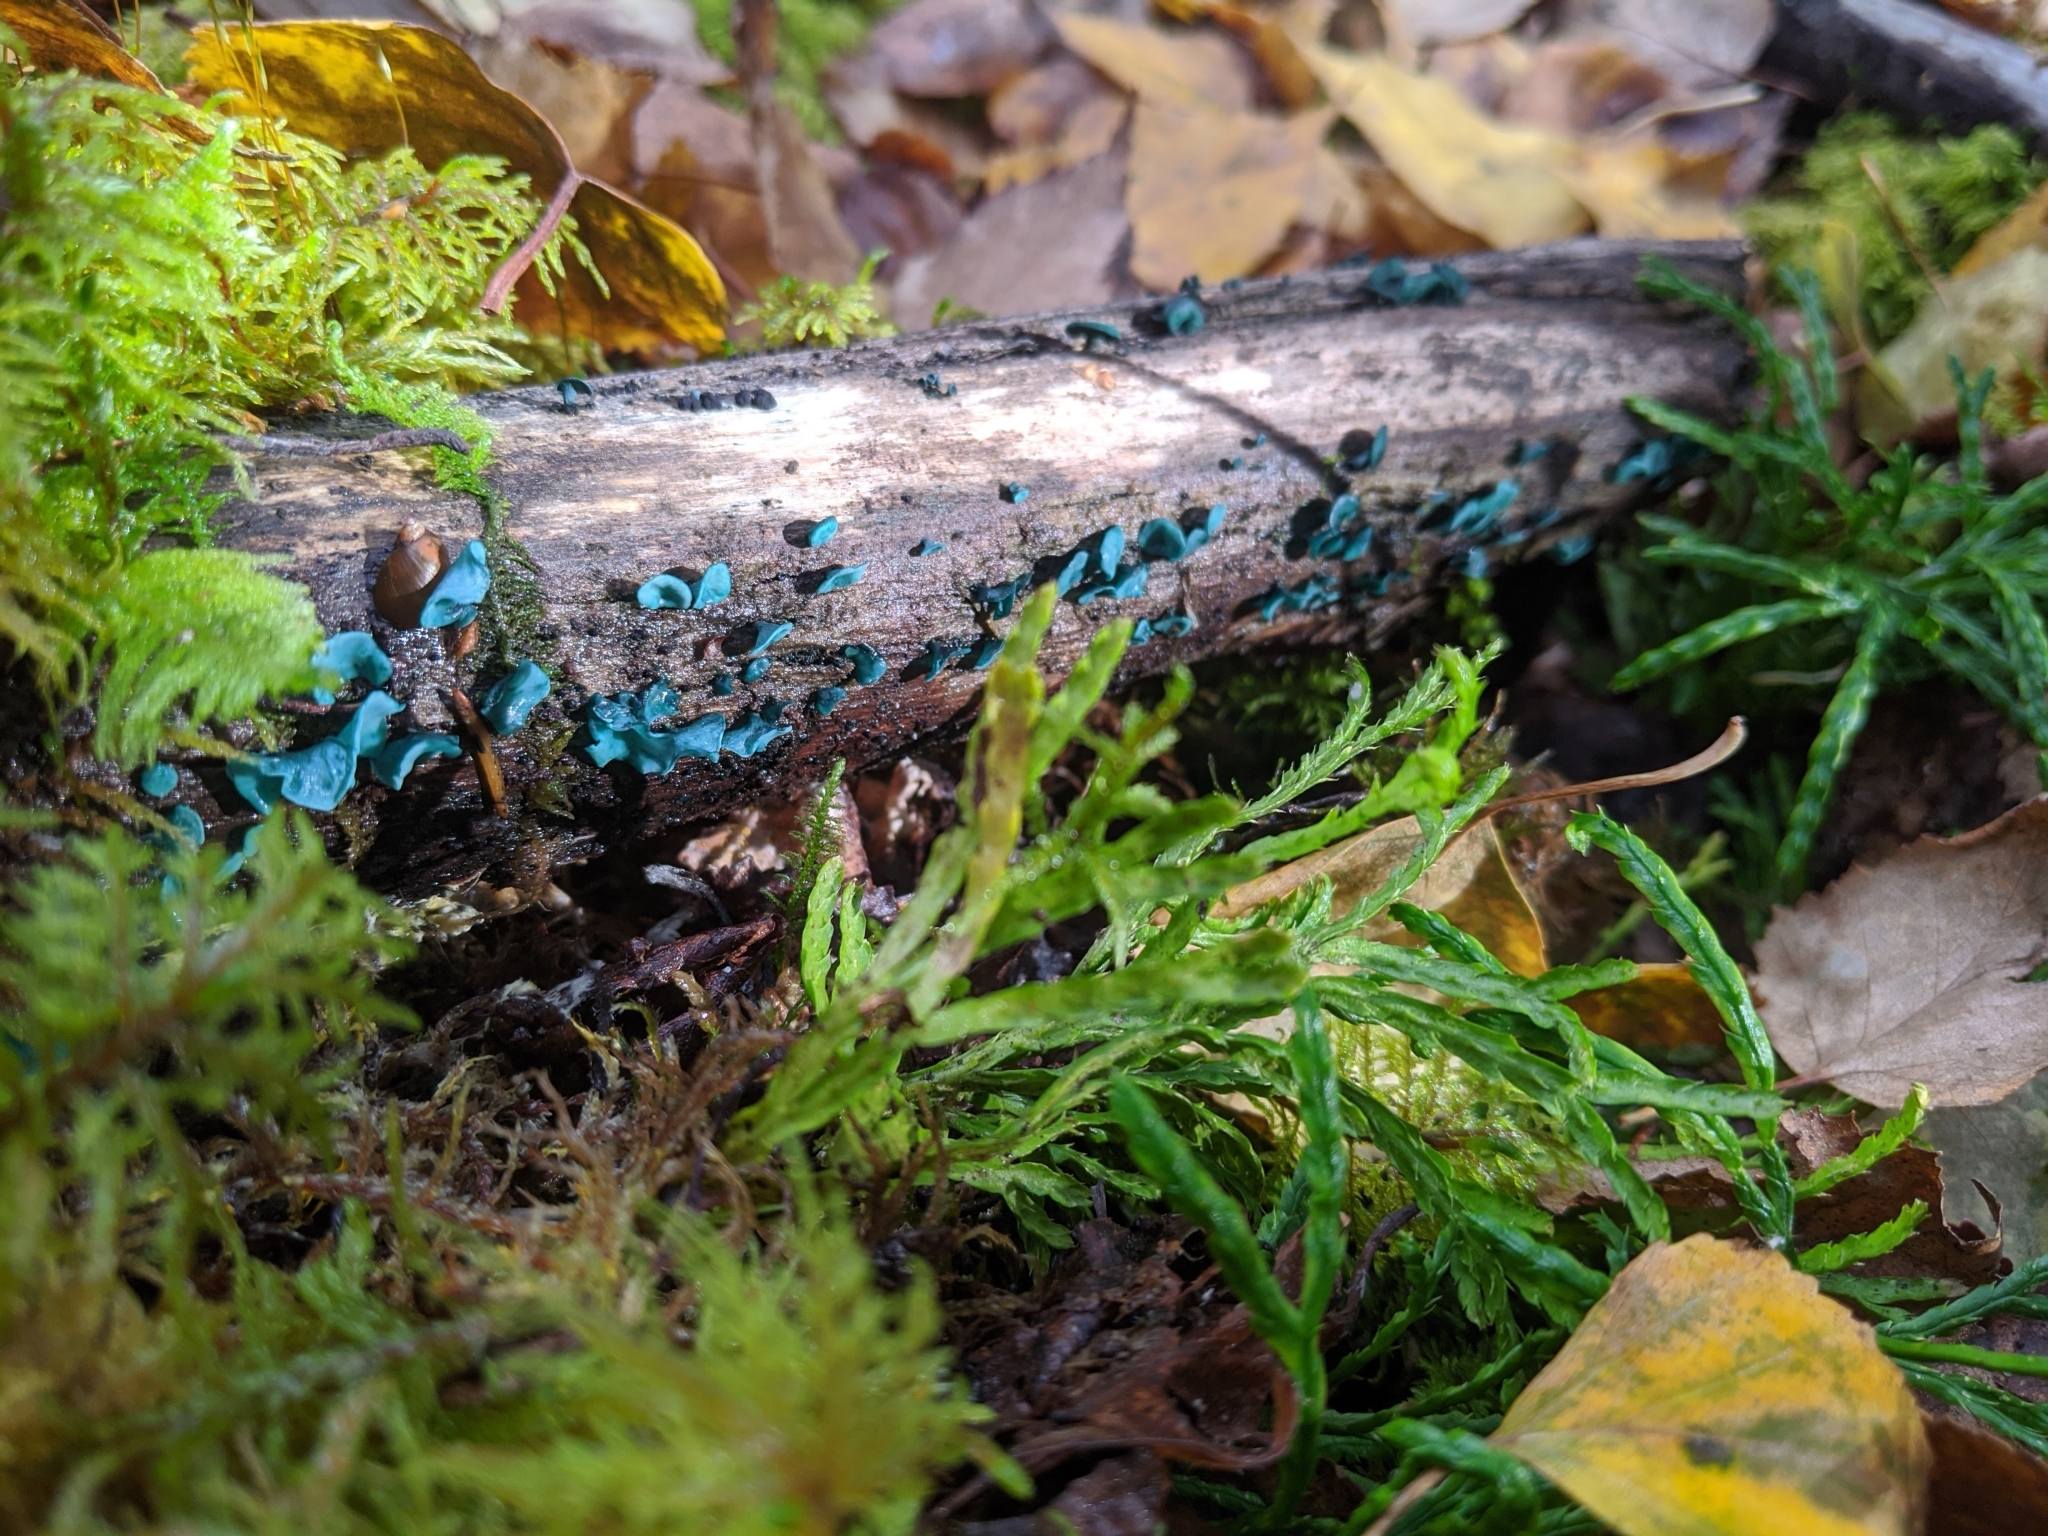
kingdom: Fungi
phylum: Ascomycota
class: Leotiomycetes
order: Helotiales
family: Chlorociboriaceae
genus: Chlorociboria
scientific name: Chlorociboria aeruginascens
